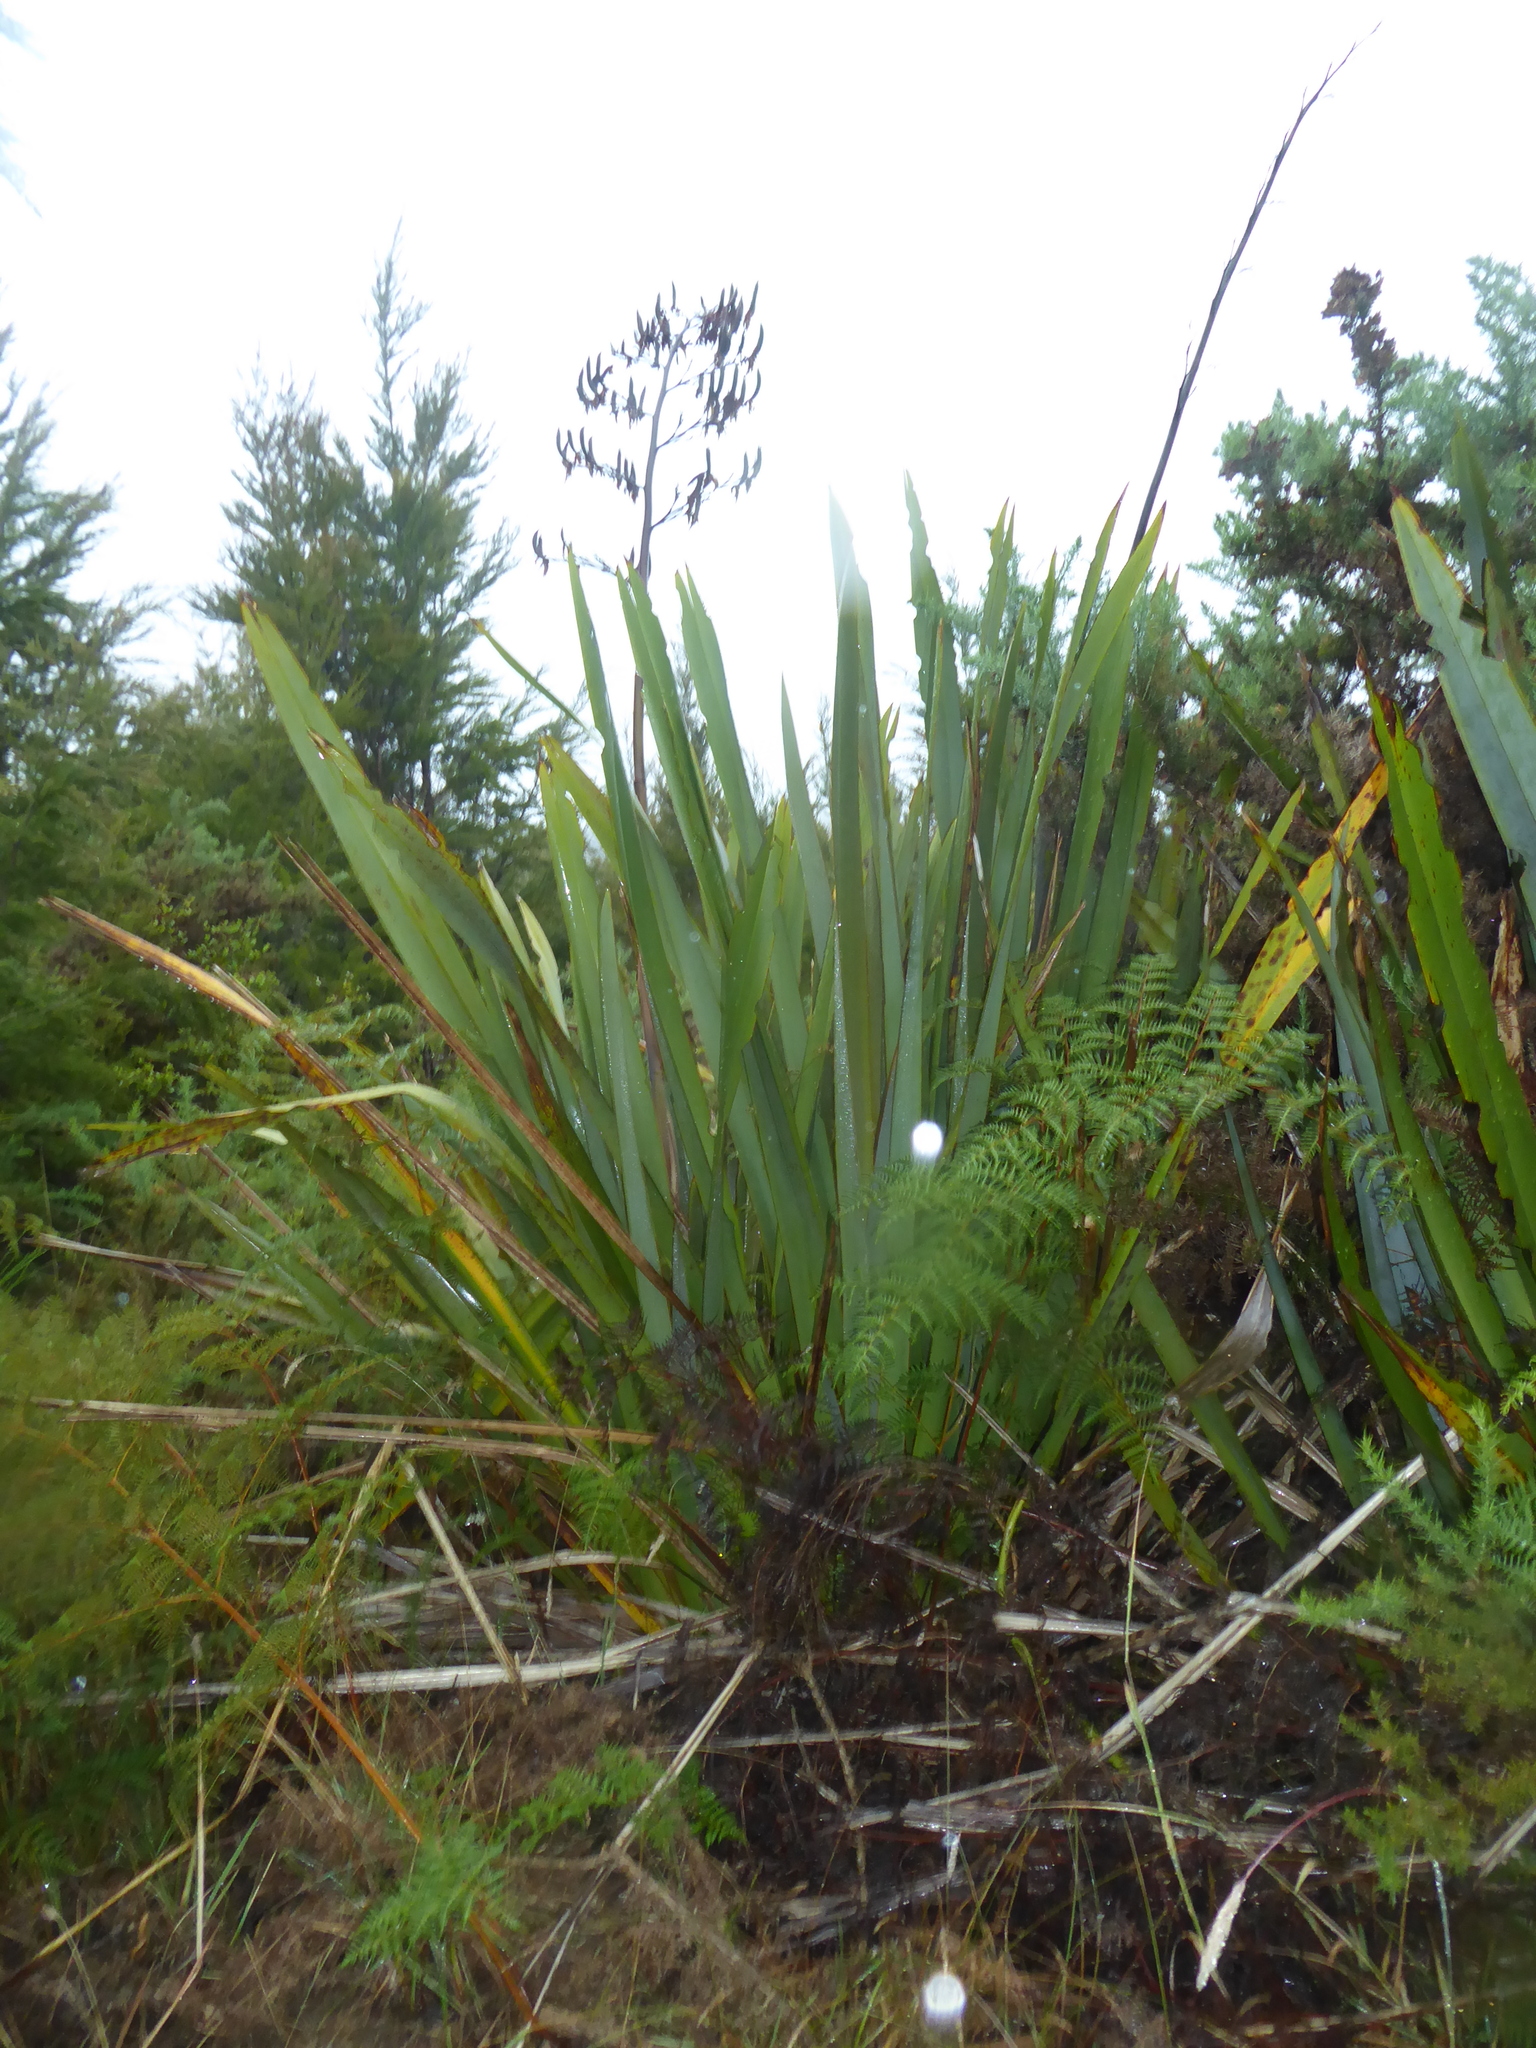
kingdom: Plantae
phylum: Tracheophyta
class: Liliopsida
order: Asparagales
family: Asphodelaceae
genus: Phormium
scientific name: Phormium tenax
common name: New zealand flax
